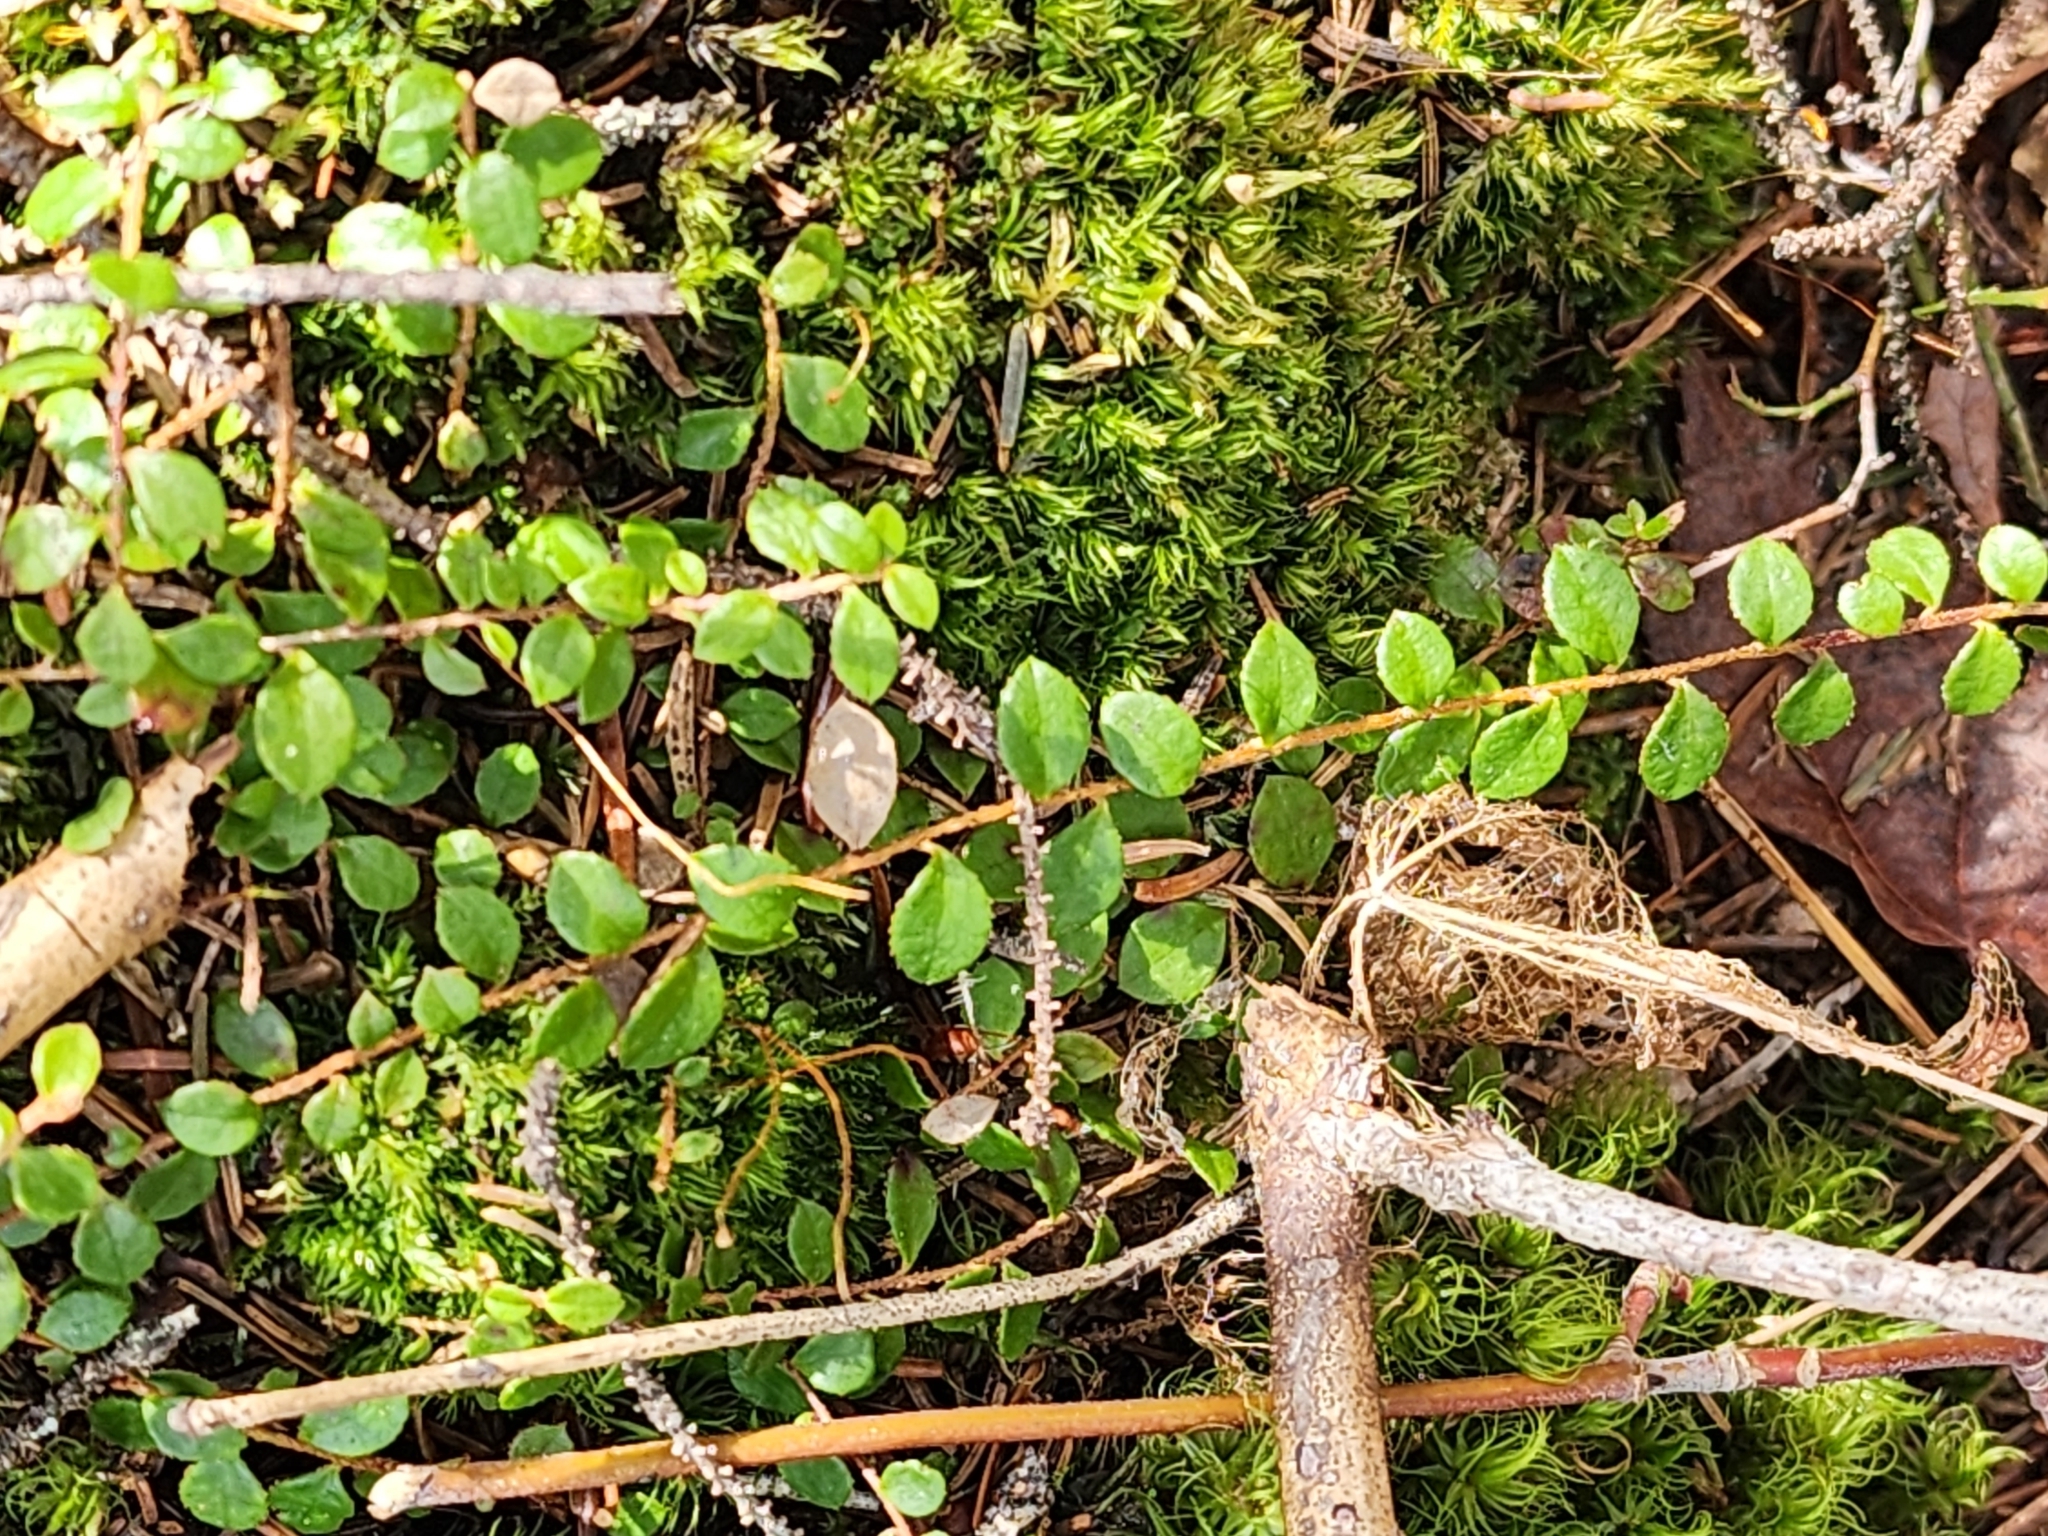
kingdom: Plantae
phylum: Tracheophyta
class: Magnoliopsida
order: Ericales
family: Ericaceae
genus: Gaultheria
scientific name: Gaultheria hispidula
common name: Cancer wintergreen
